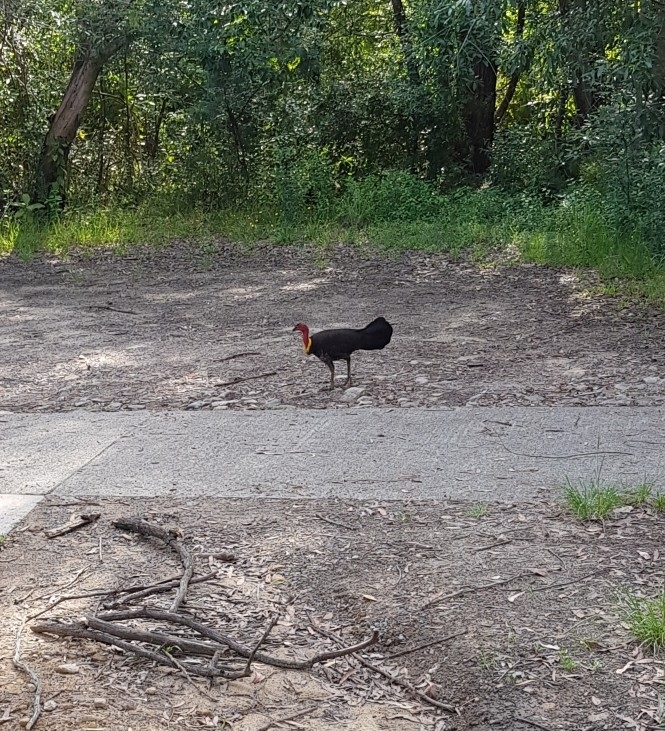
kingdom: Animalia
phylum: Chordata
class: Aves
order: Galliformes
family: Megapodiidae
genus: Alectura
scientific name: Alectura lathami
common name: Australian brushturkey
